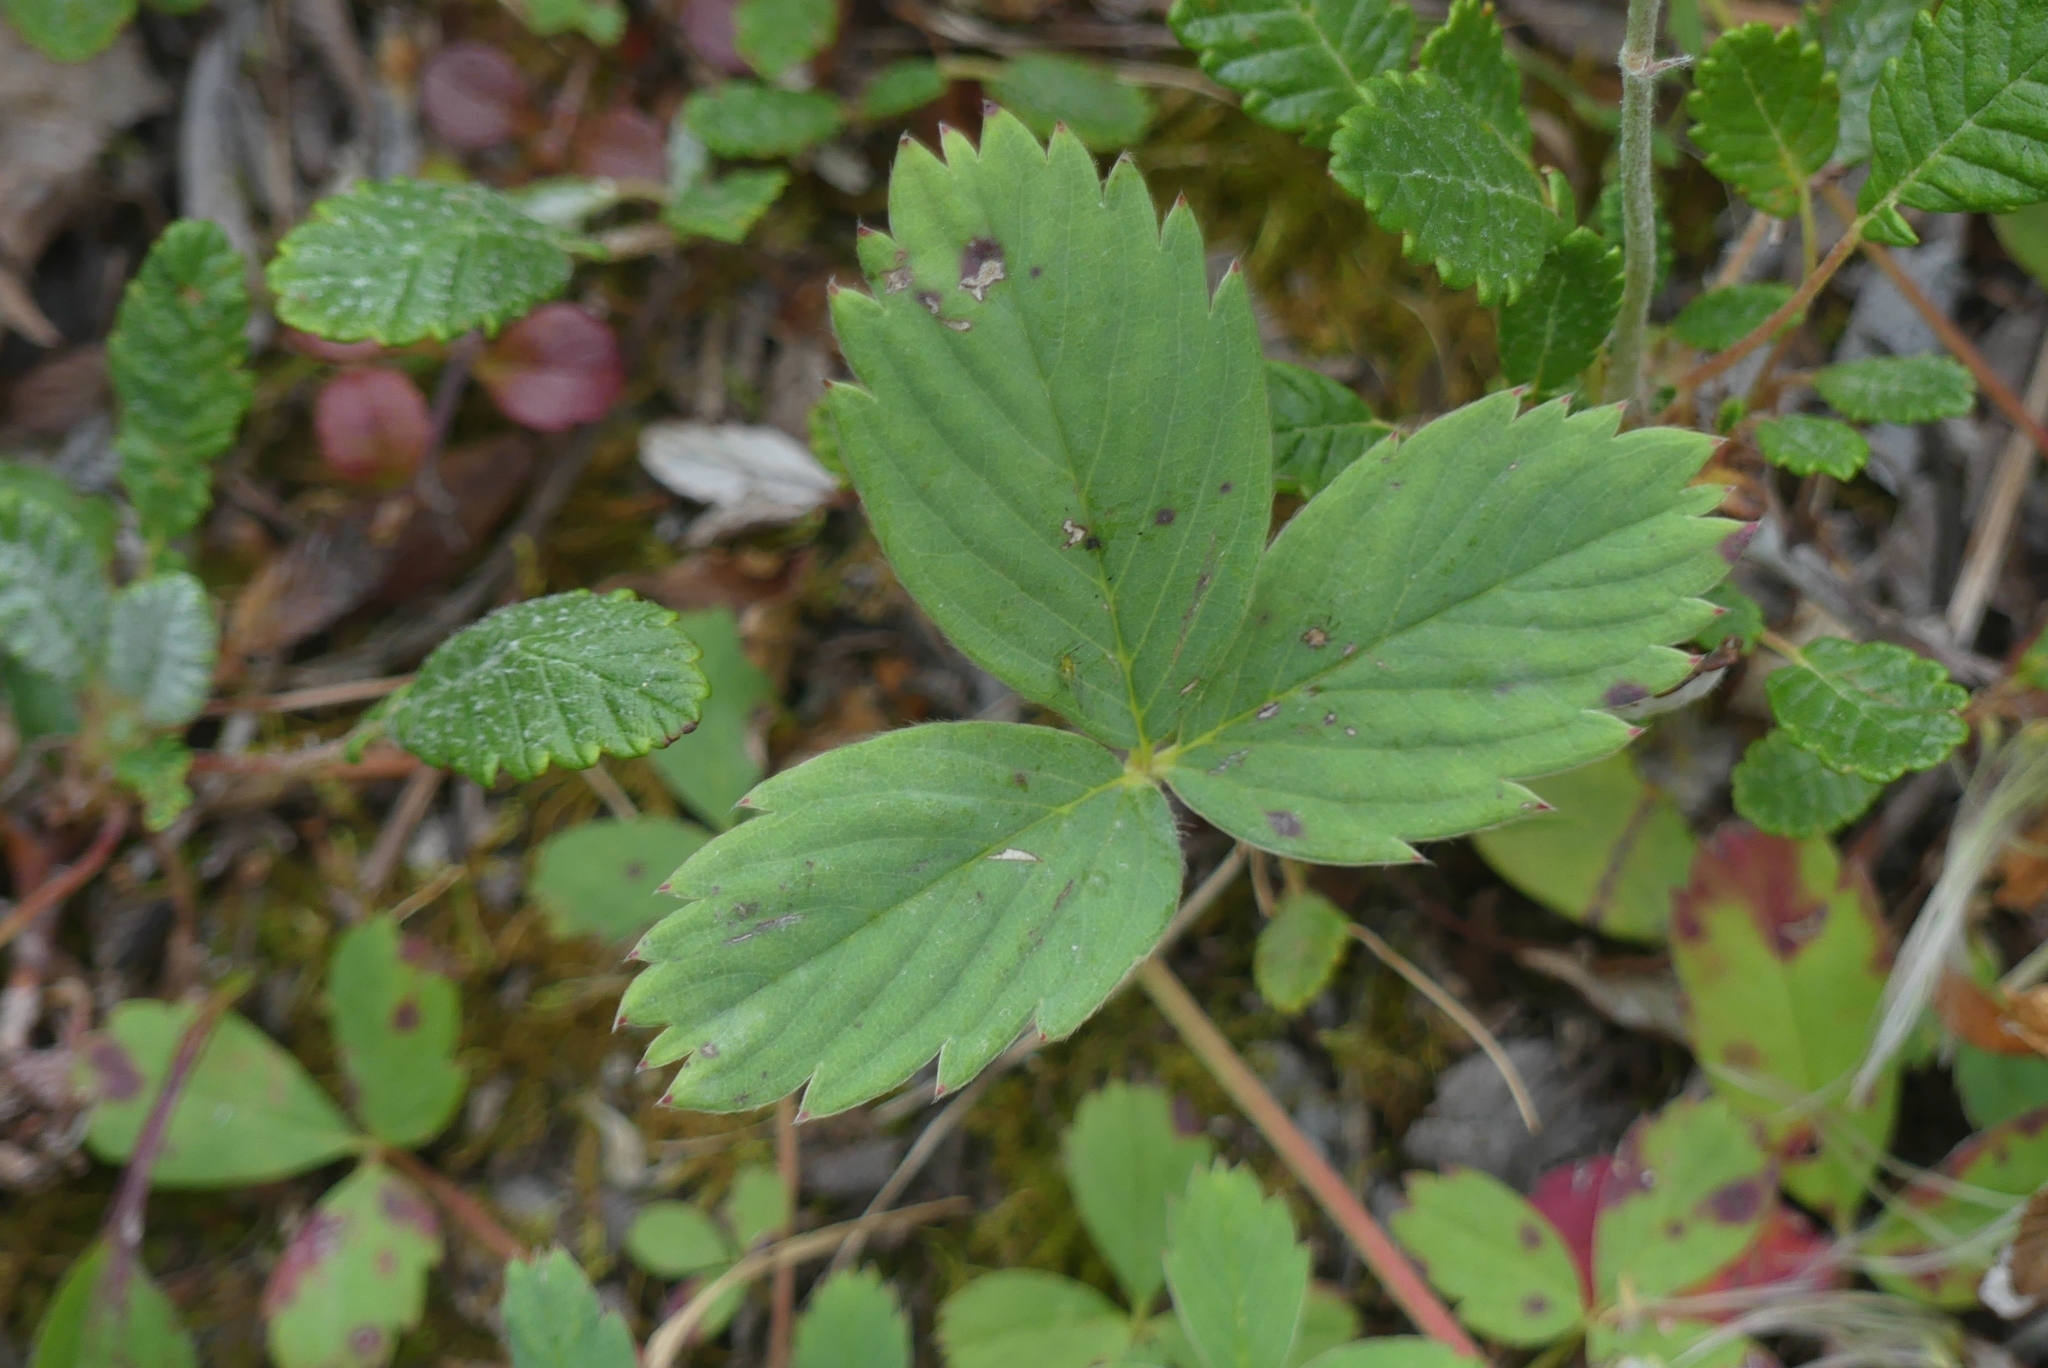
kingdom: Plantae
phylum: Tracheophyta
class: Magnoliopsida
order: Rosales
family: Rosaceae
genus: Fragaria
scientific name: Fragaria virginiana
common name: Thickleaved wild strawberry
